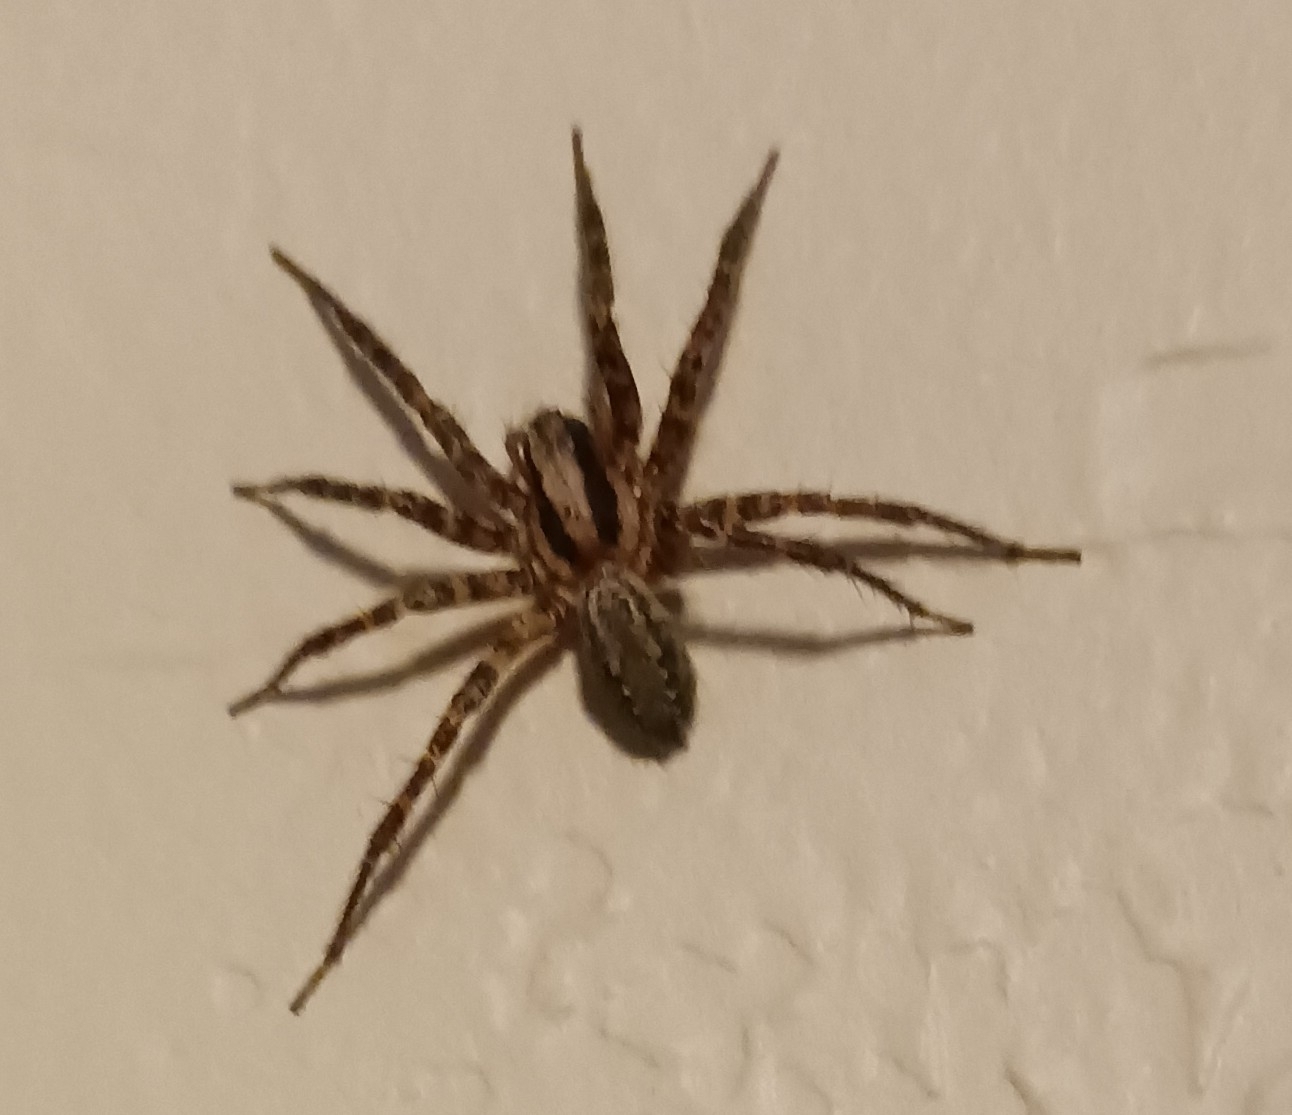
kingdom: Animalia
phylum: Arthropoda
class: Arachnida
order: Araneae
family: Agelenidae
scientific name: Agelenidae
